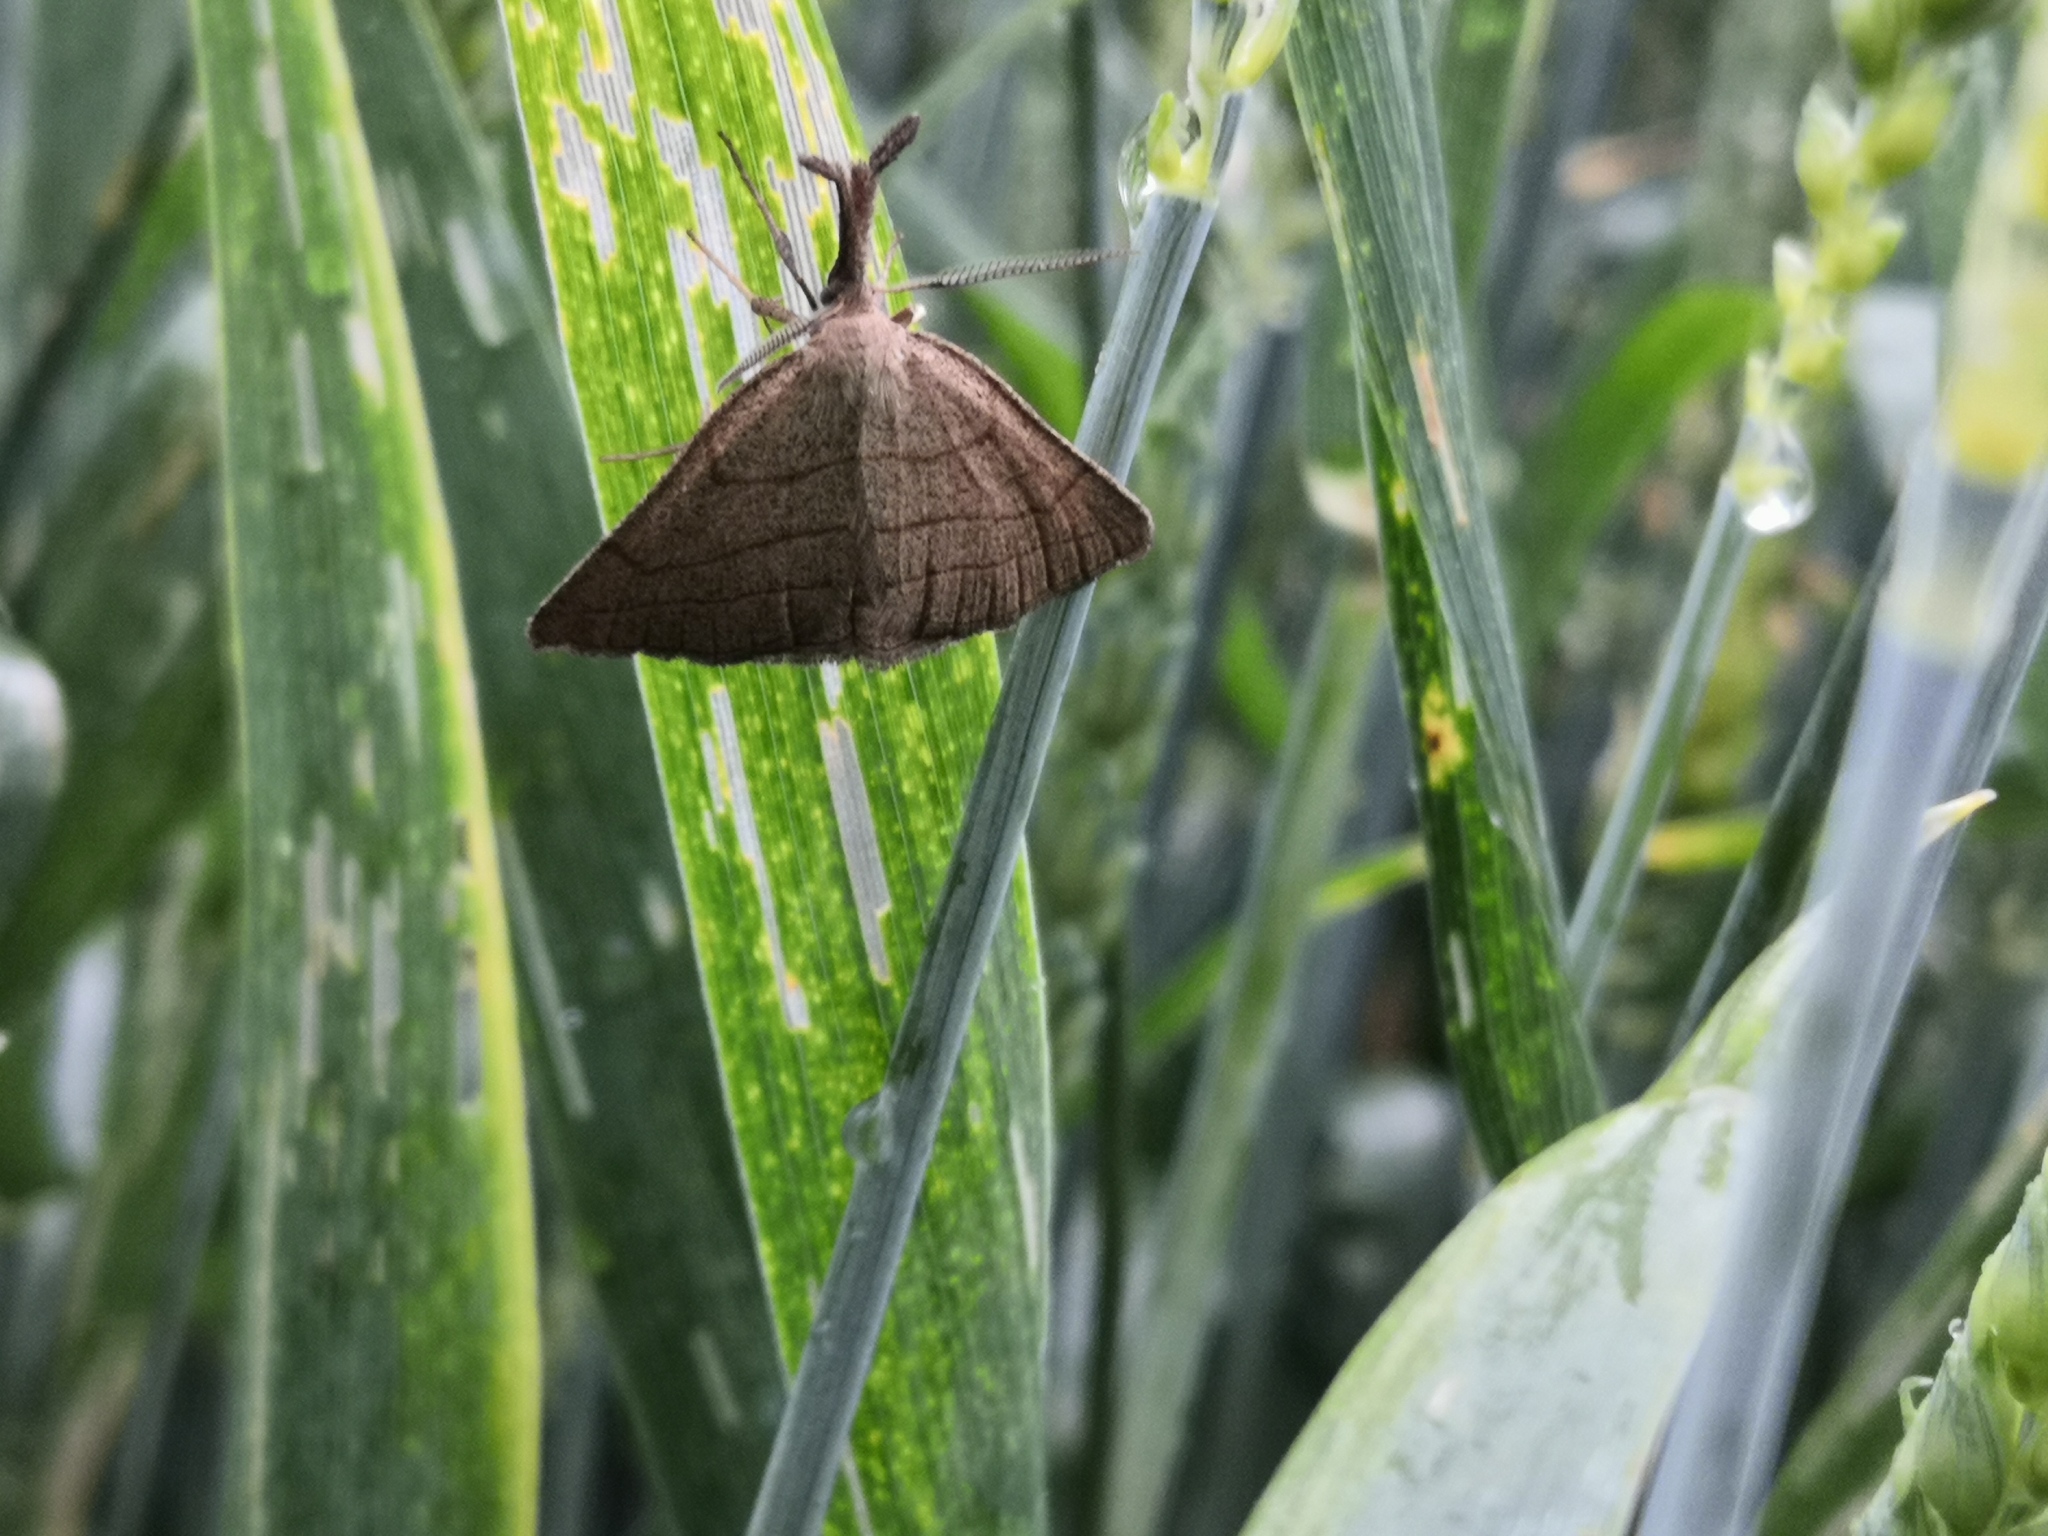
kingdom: Animalia
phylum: Arthropoda
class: Insecta
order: Lepidoptera
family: Erebidae
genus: Polypogon
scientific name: Polypogon tentacularia
